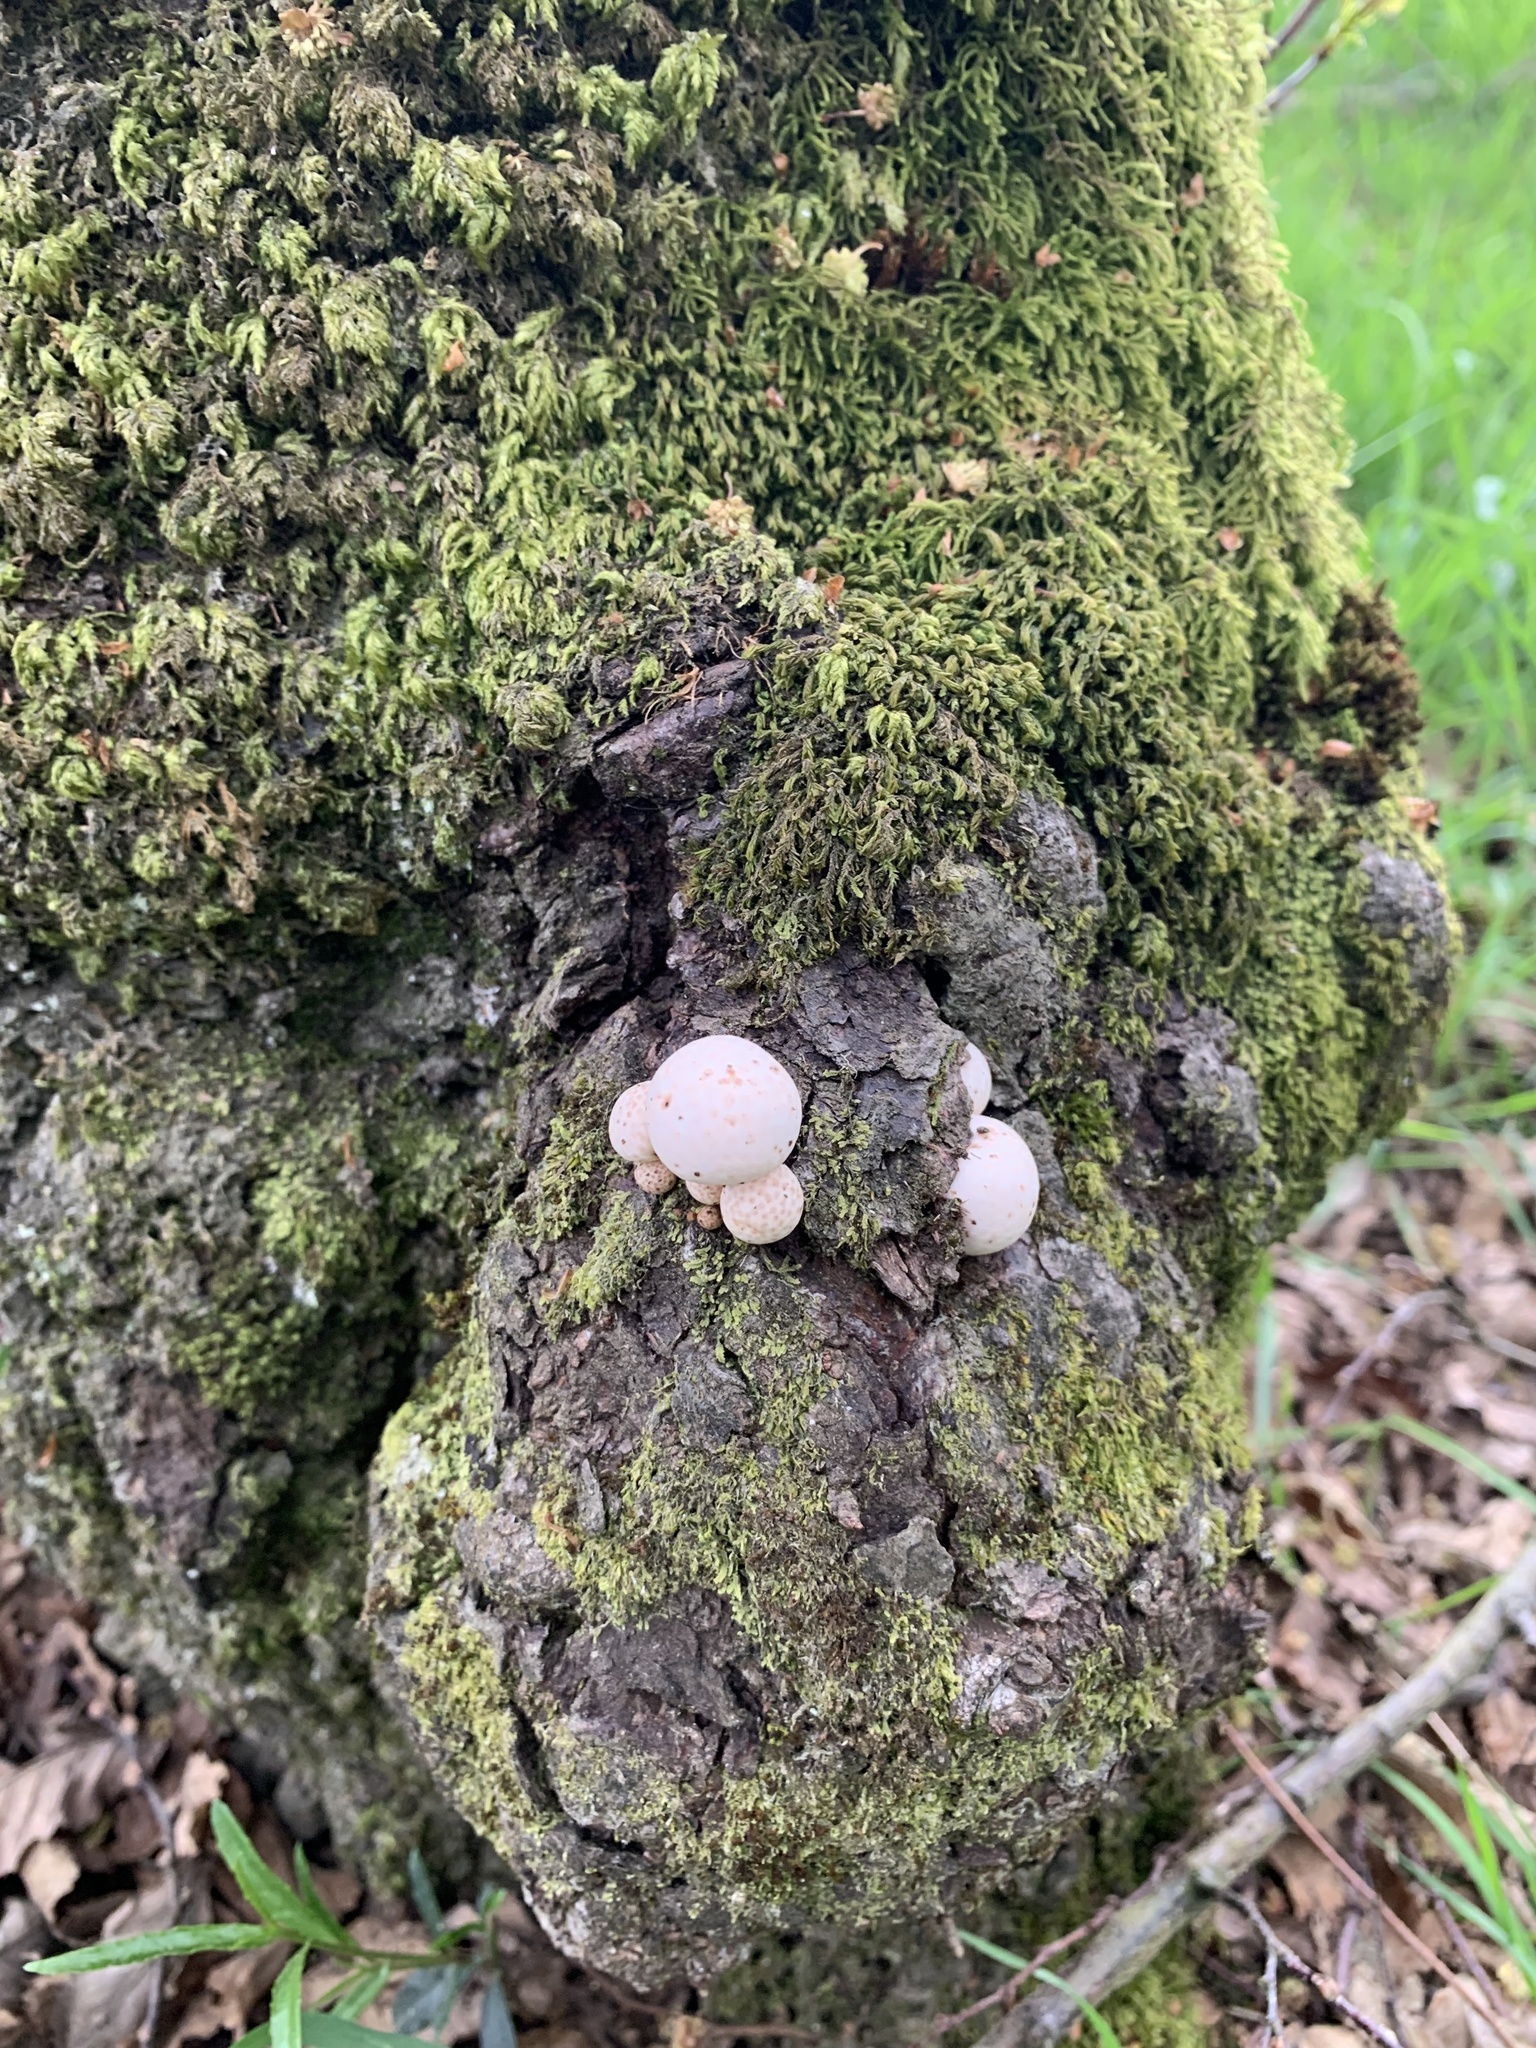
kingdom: Fungi
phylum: Ascomycota
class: Leotiomycetes
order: Cyttariales
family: Cyttariaceae
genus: Cyttaria
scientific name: Cyttaria espinosae
